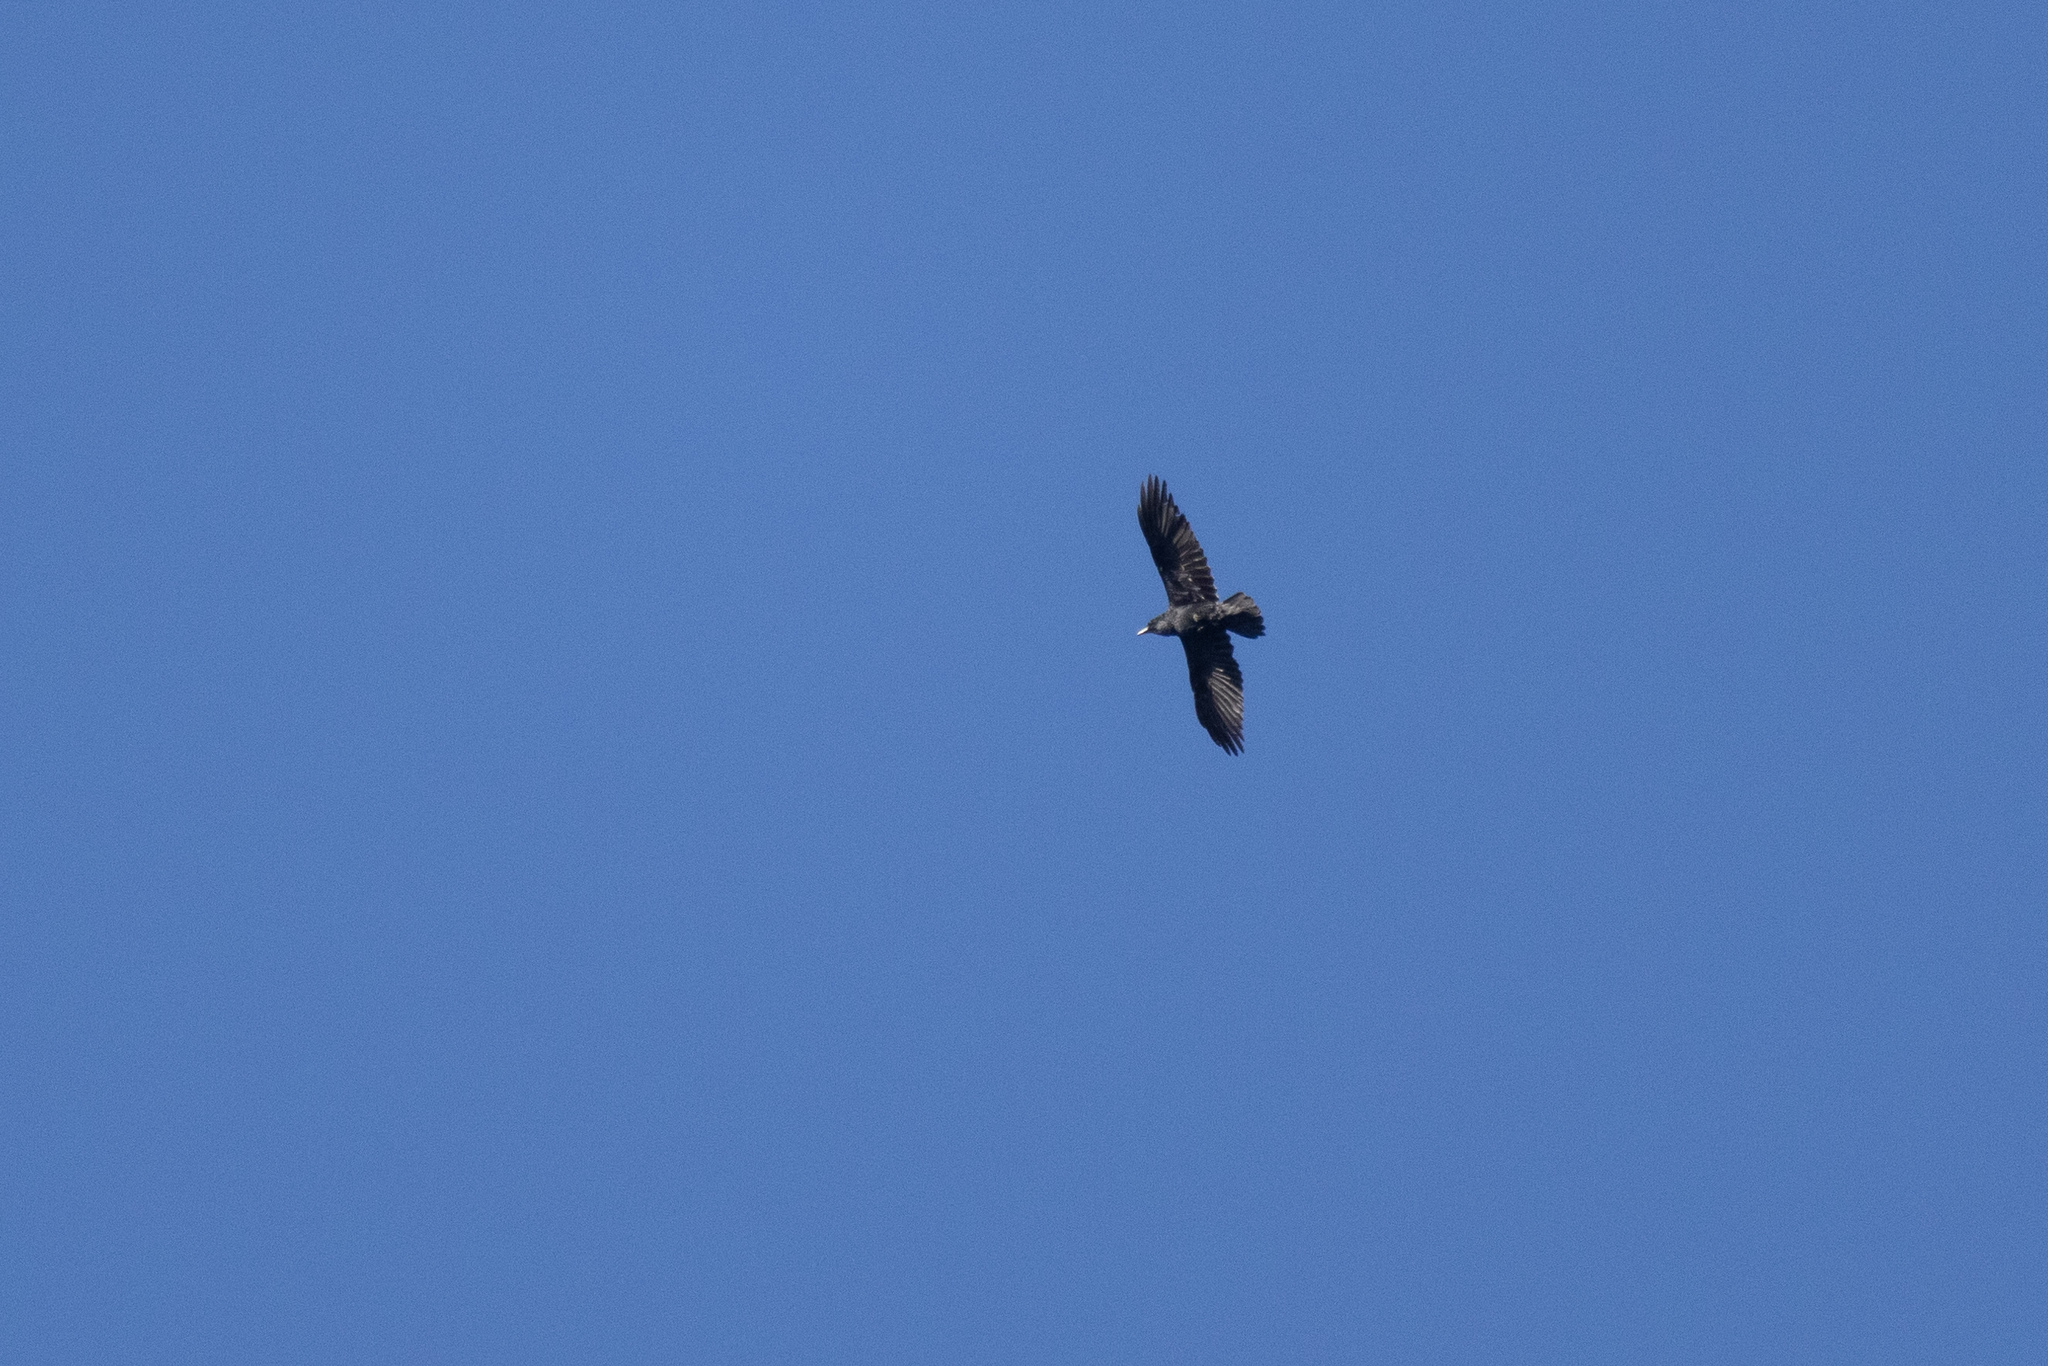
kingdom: Animalia
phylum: Chordata
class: Aves
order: Passeriformes
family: Corvidae
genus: Corvus
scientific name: Corvus corax
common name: Common raven
